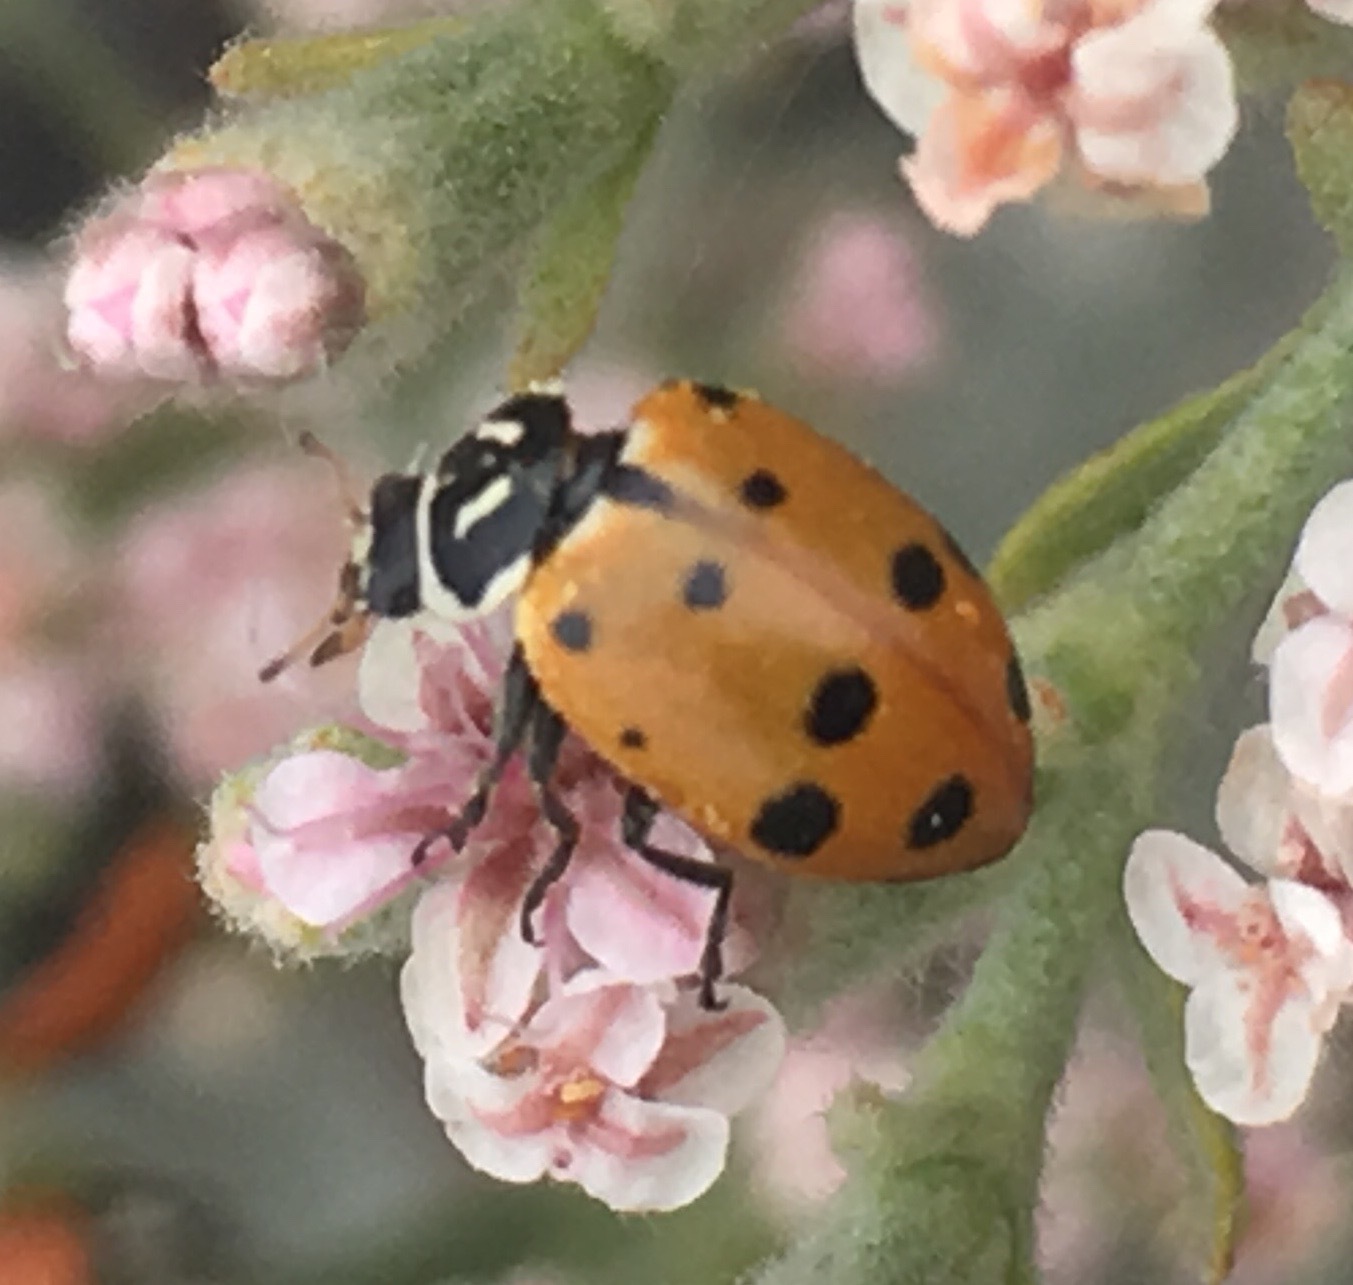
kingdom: Animalia
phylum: Arthropoda
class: Insecta
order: Coleoptera
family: Coccinellidae
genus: Hippodamia
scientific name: Hippodamia convergens
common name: Convergent lady beetle
